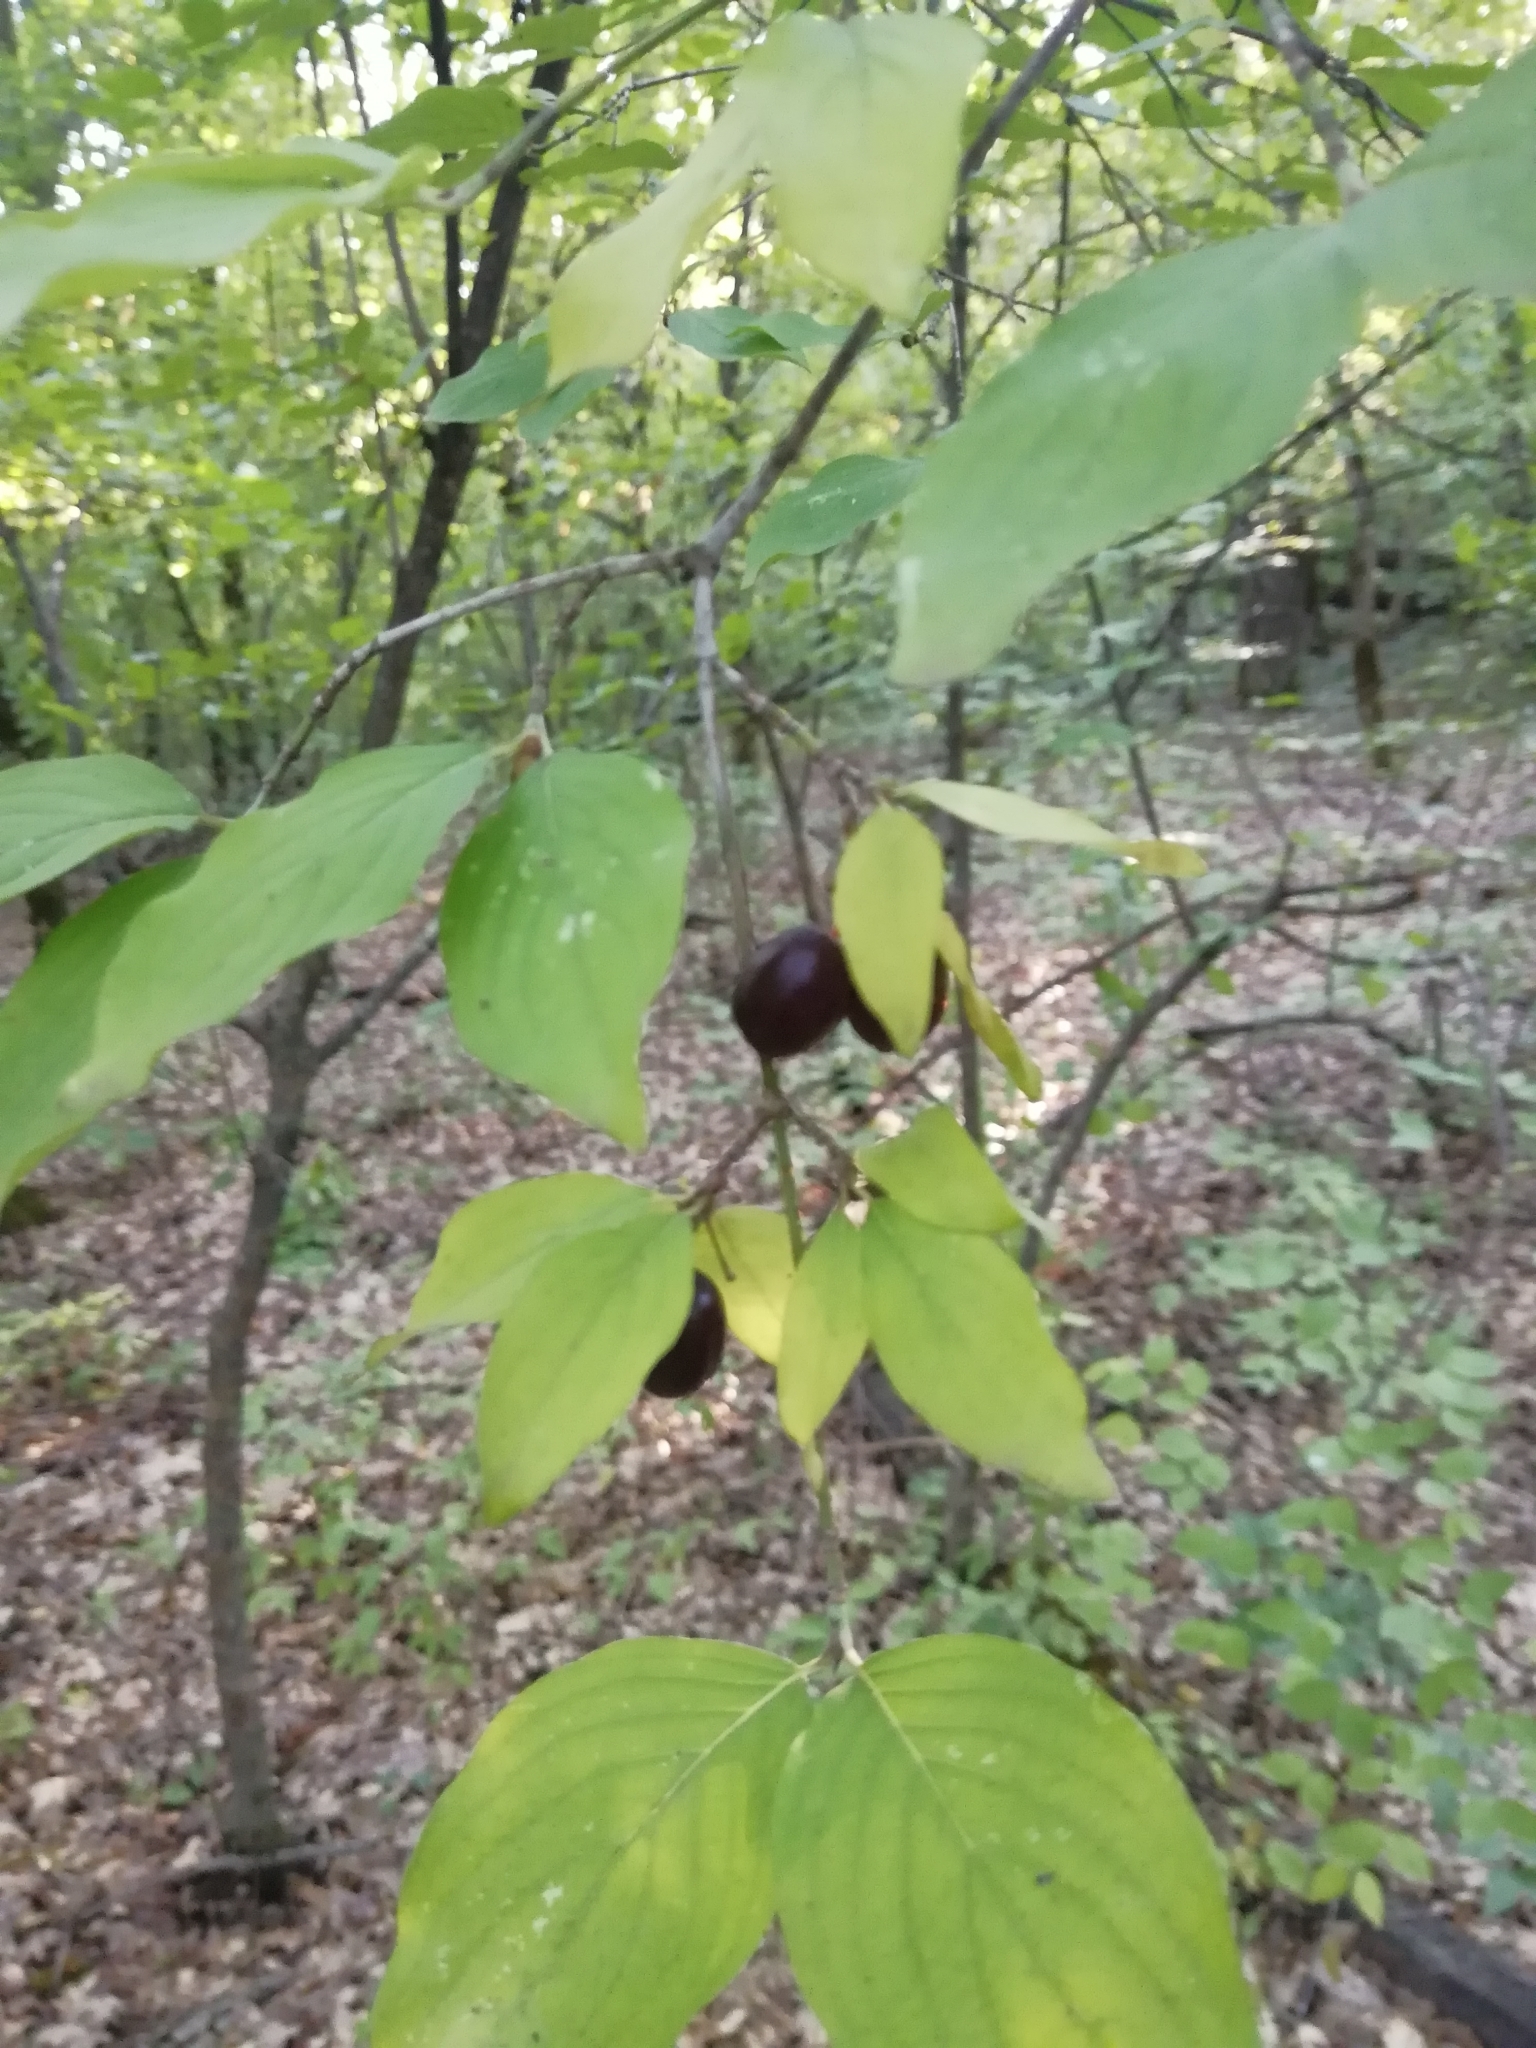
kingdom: Plantae
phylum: Tracheophyta
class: Magnoliopsida
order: Cornales
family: Cornaceae
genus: Cornus
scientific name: Cornus mas
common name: Cornelian-cherry
